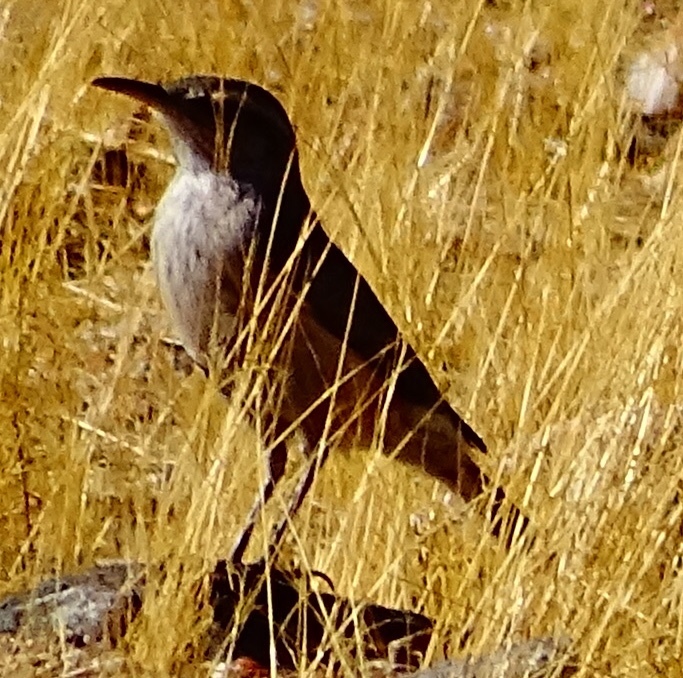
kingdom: Animalia
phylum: Chordata
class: Aves
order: Passeriformes
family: Troglodytidae
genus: Salpinctes
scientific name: Salpinctes obsoletus
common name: Rock wren
